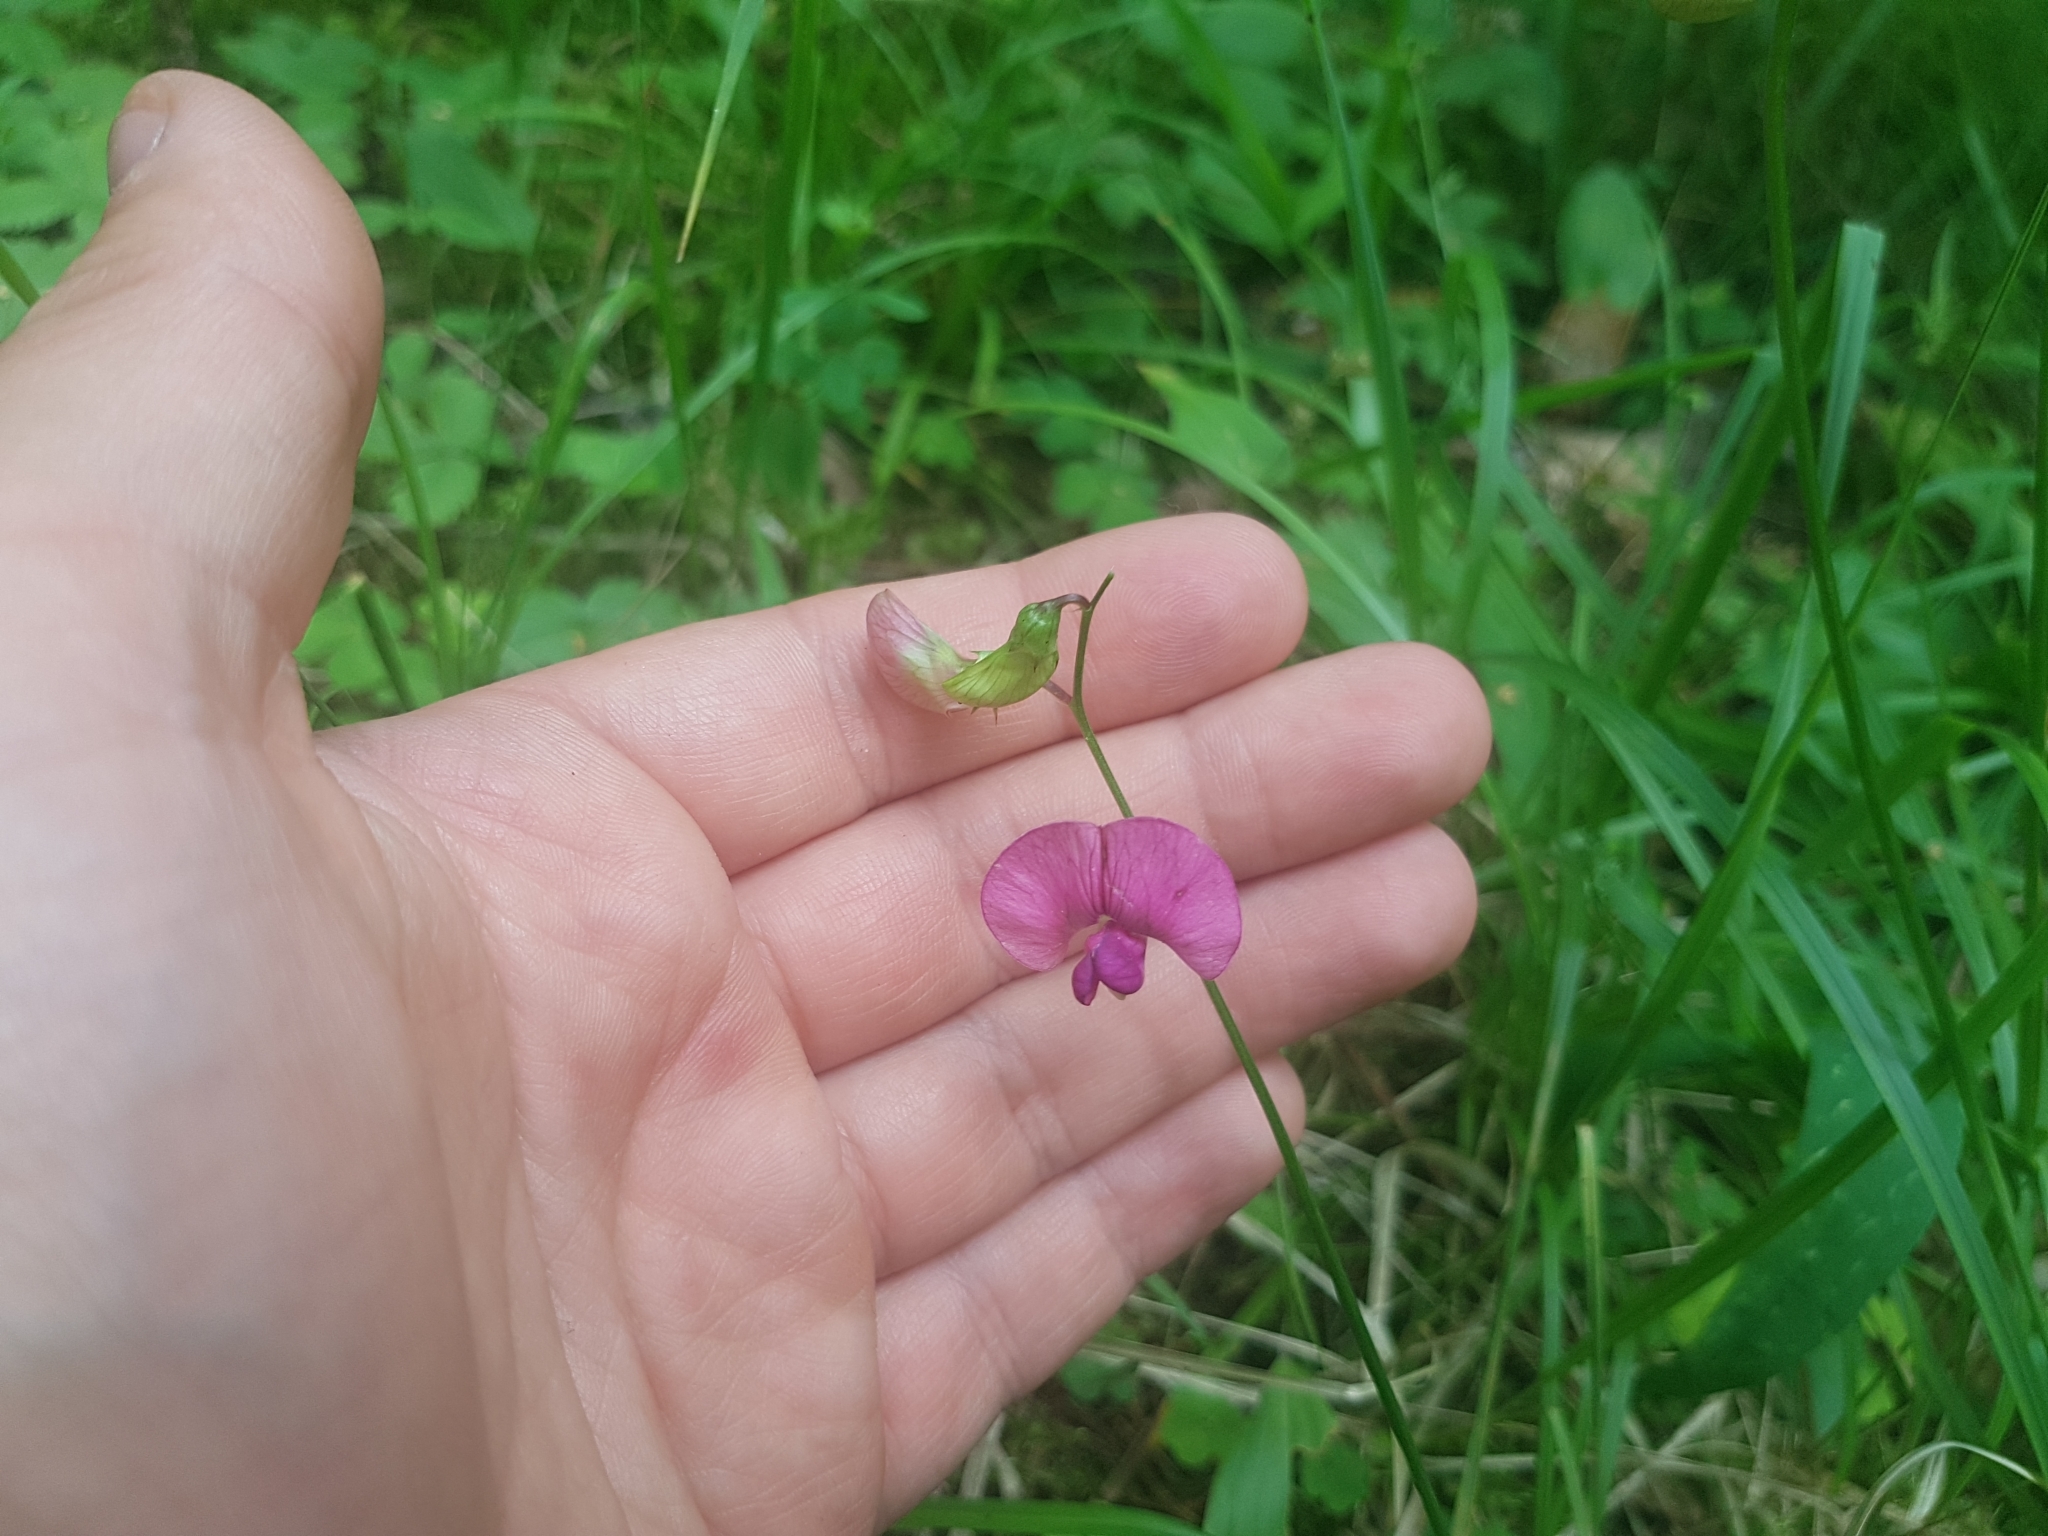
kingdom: Plantae
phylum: Tracheophyta
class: Magnoliopsida
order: Fabales
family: Fabaceae
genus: Lathyrus
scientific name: Lathyrus sylvestris
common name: Flat pea
